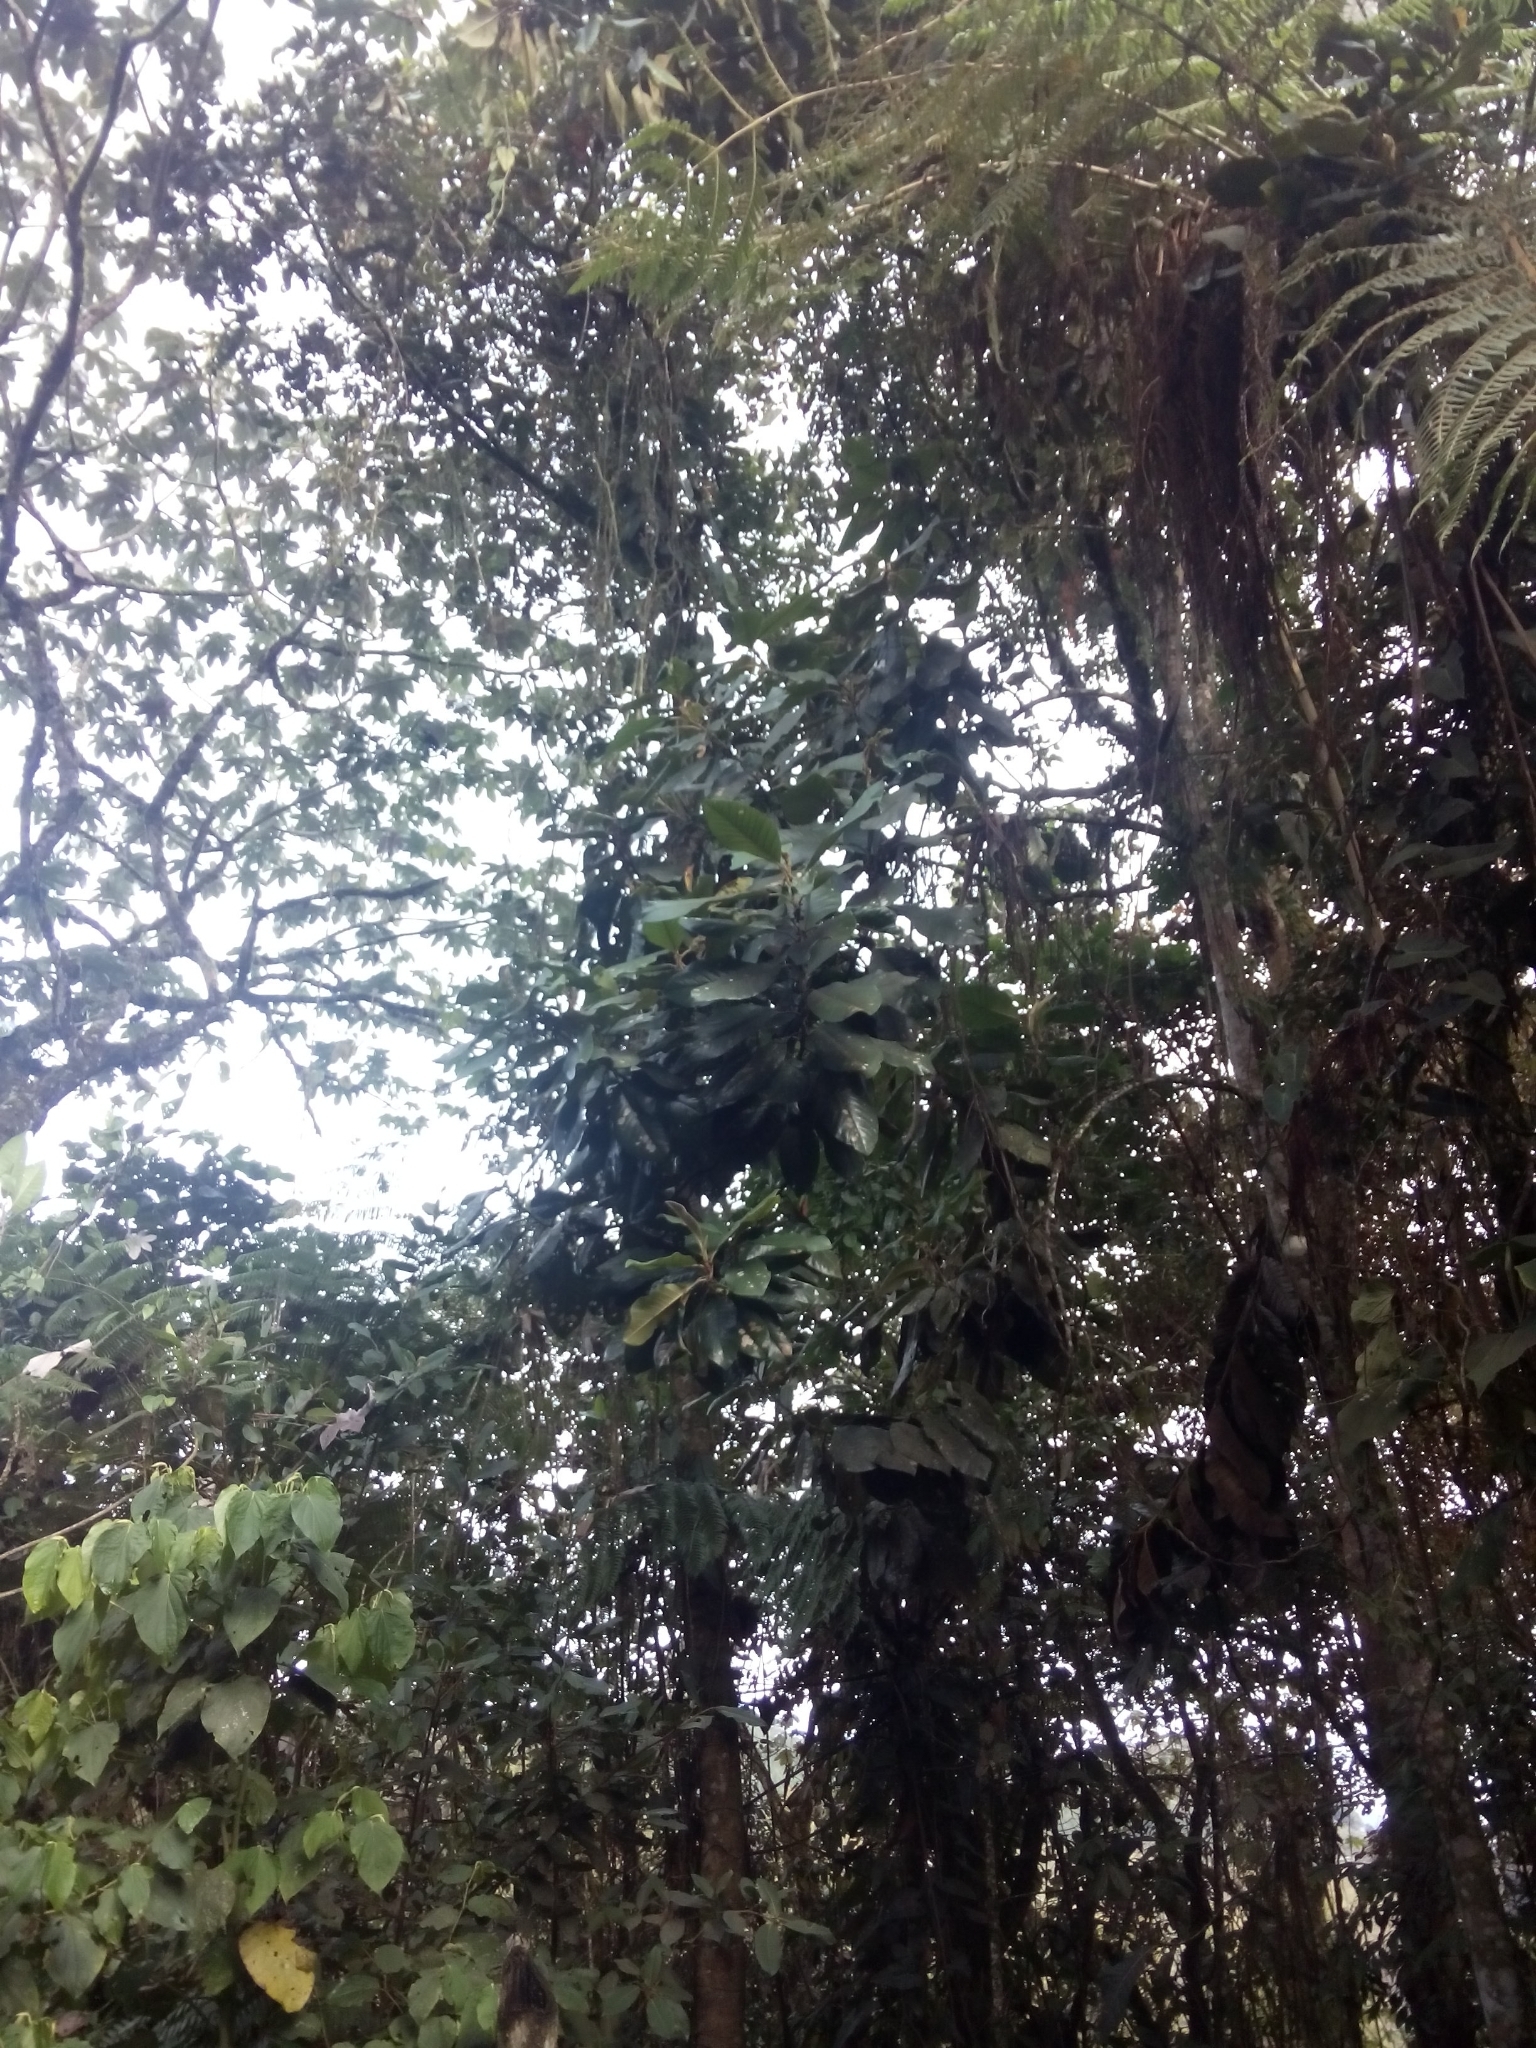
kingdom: Plantae
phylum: Tracheophyta
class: Magnoliopsida
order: Magnoliales
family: Magnoliaceae
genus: Magnolia
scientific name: Magnolia jardinensis
